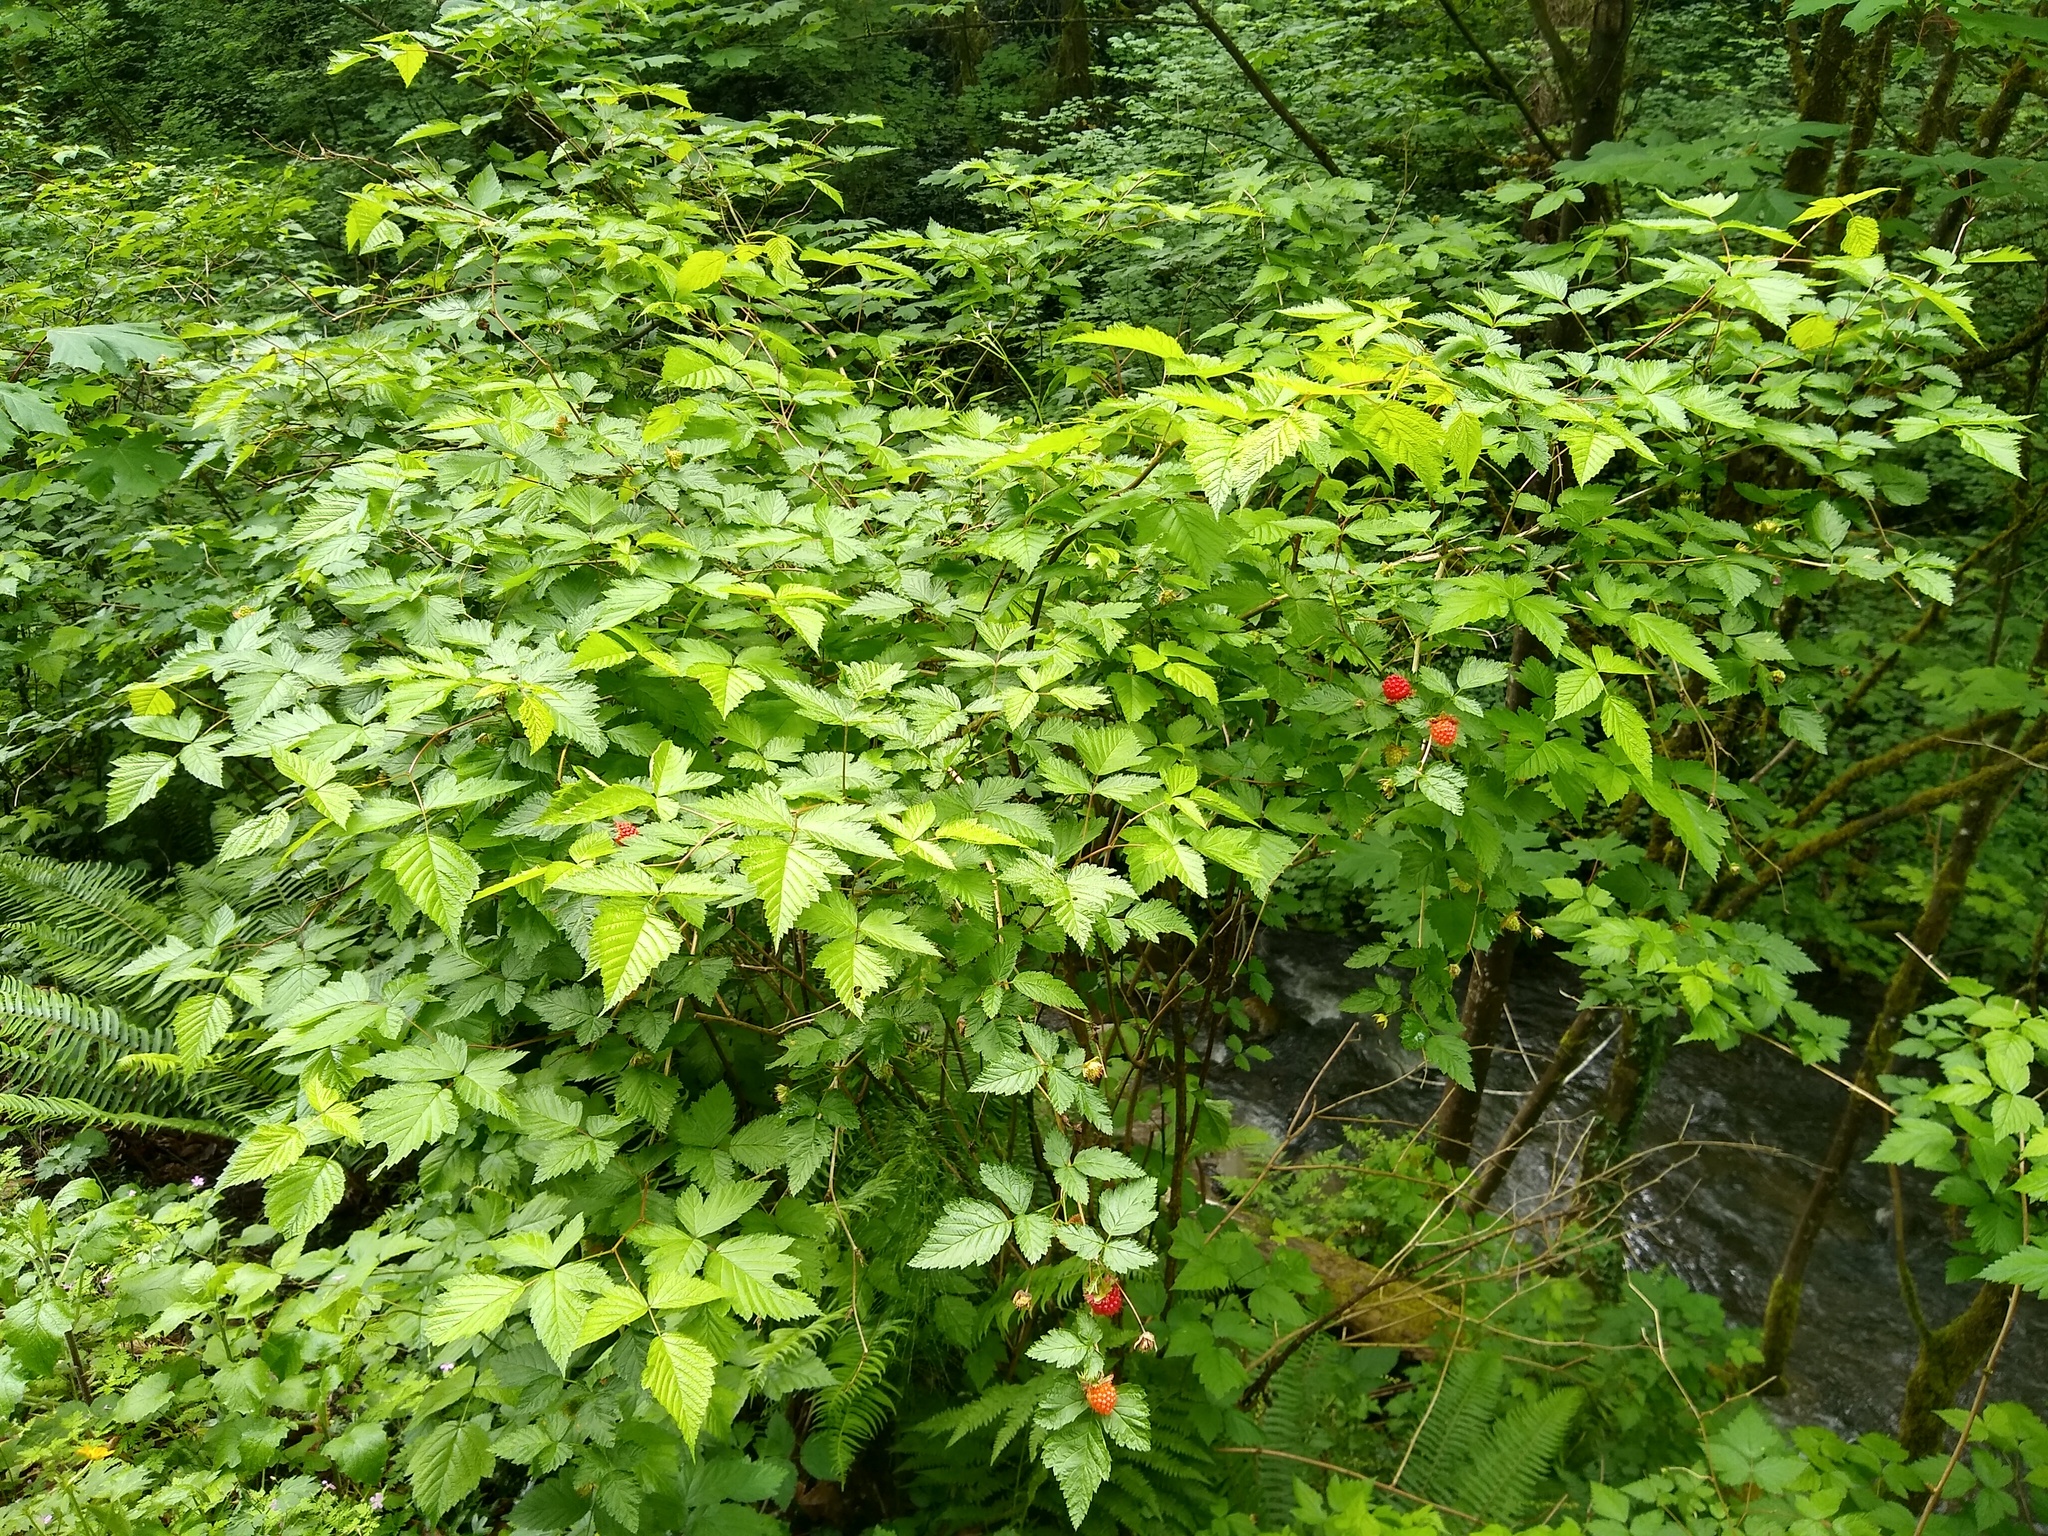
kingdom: Plantae
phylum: Tracheophyta
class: Magnoliopsida
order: Rosales
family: Rosaceae
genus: Rubus
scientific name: Rubus spectabilis
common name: Salmonberry
